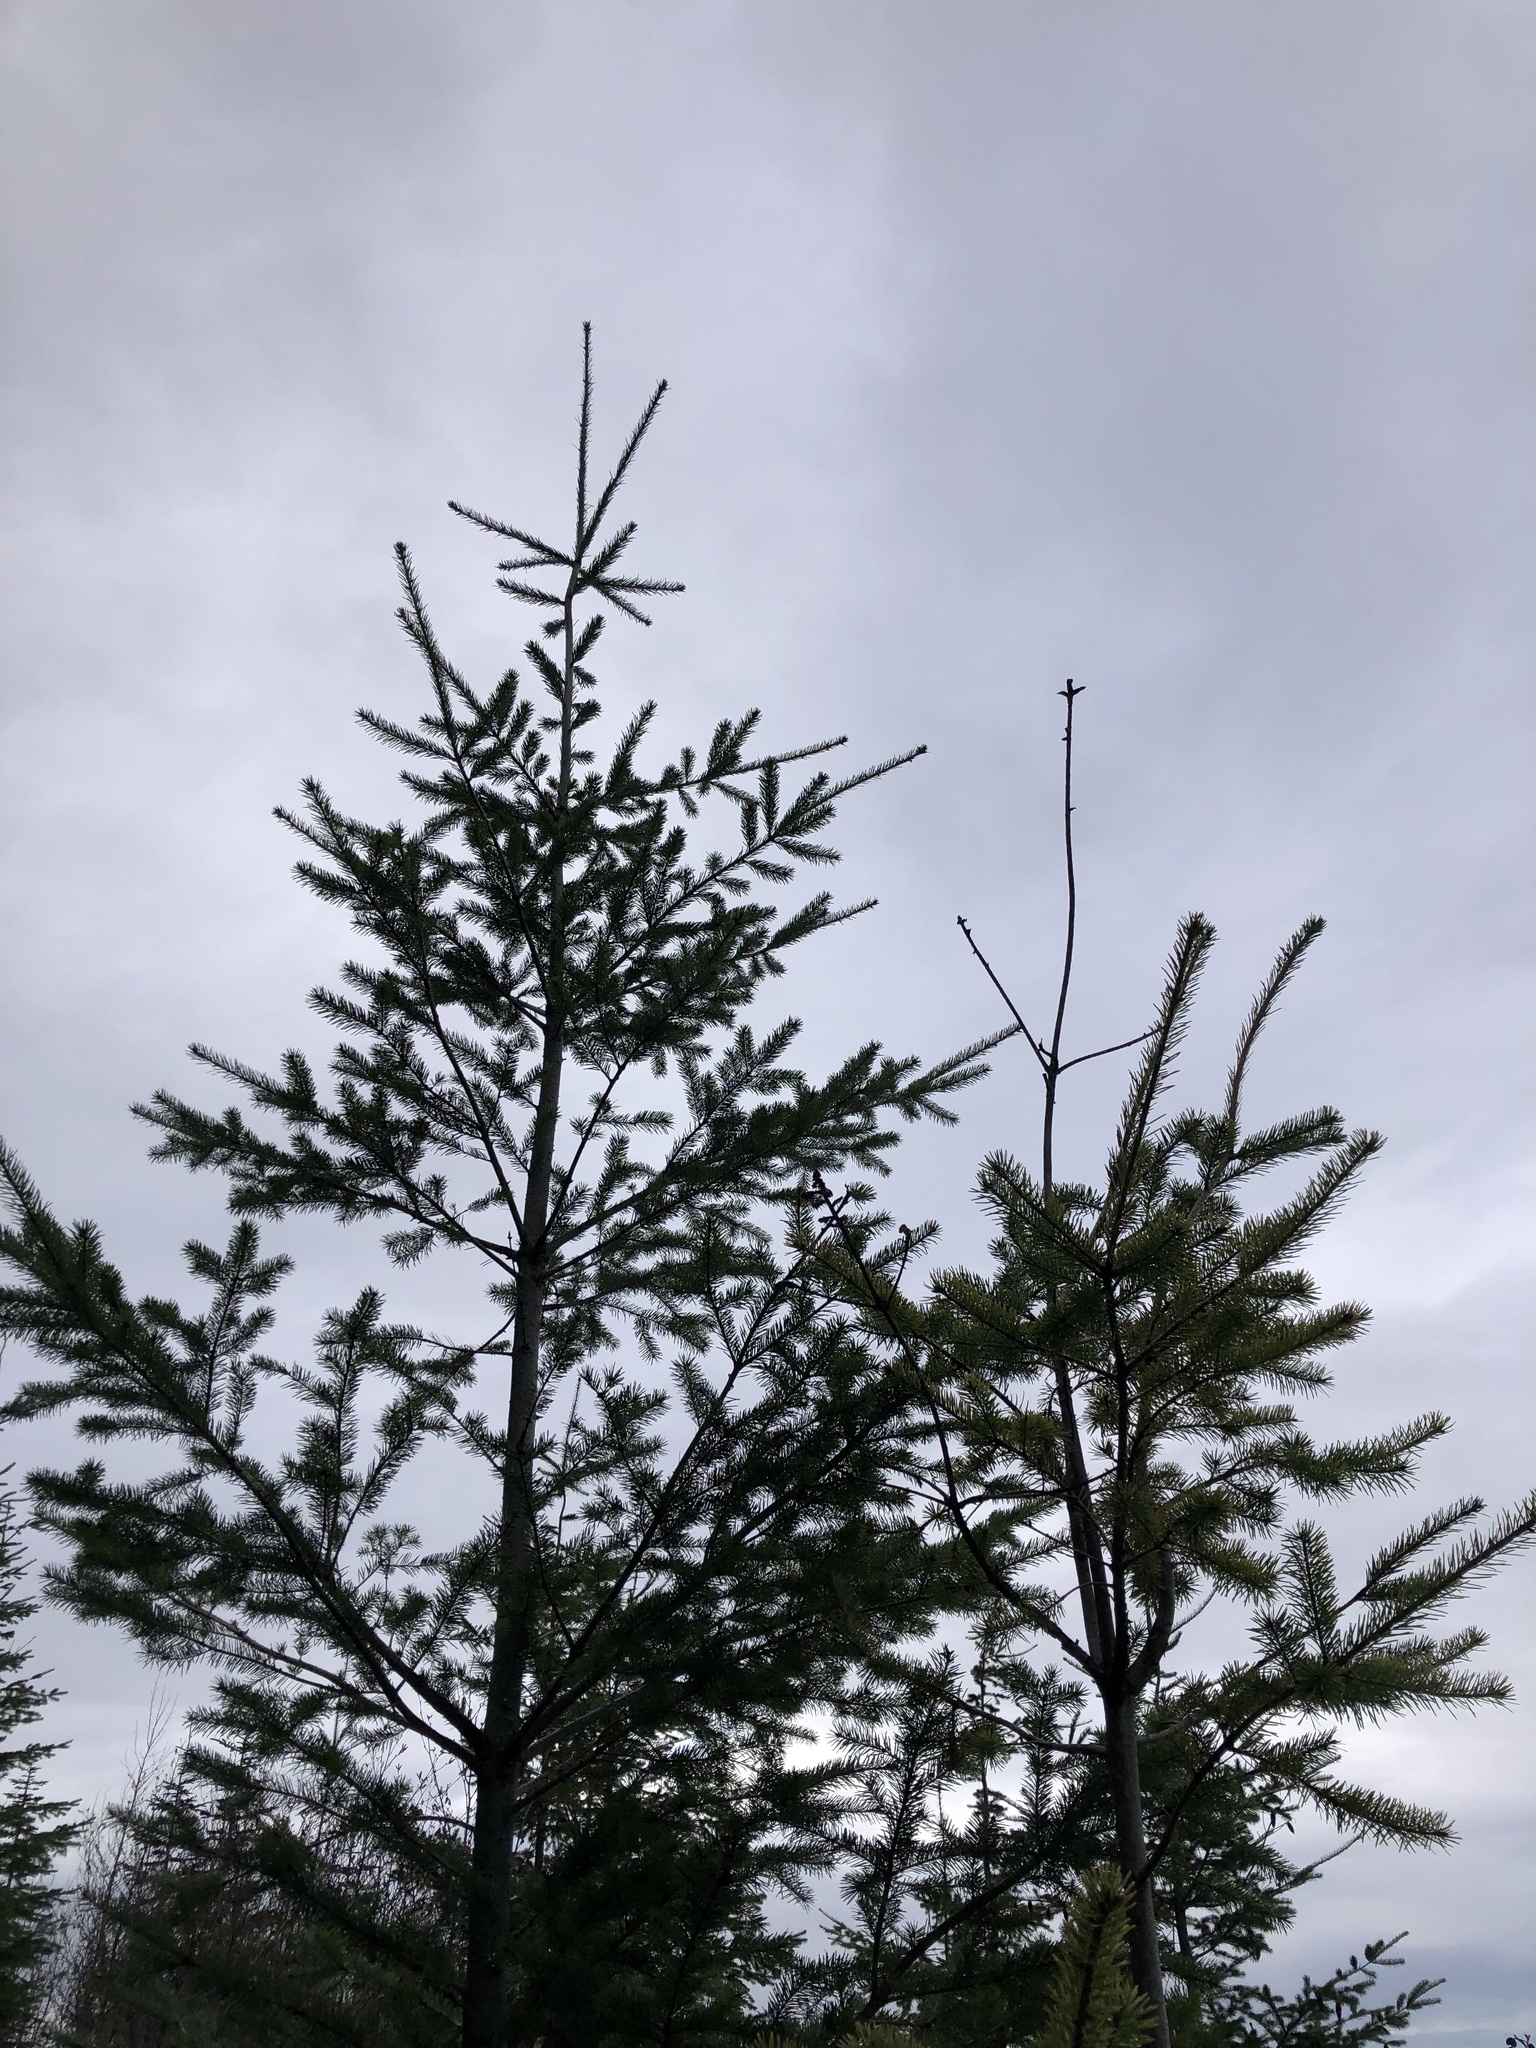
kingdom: Plantae
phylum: Tracheophyta
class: Pinopsida
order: Pinales
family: Pinaceae
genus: Pseudotsuga
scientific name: Pseudotsuga menziesii
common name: Douglas fir
